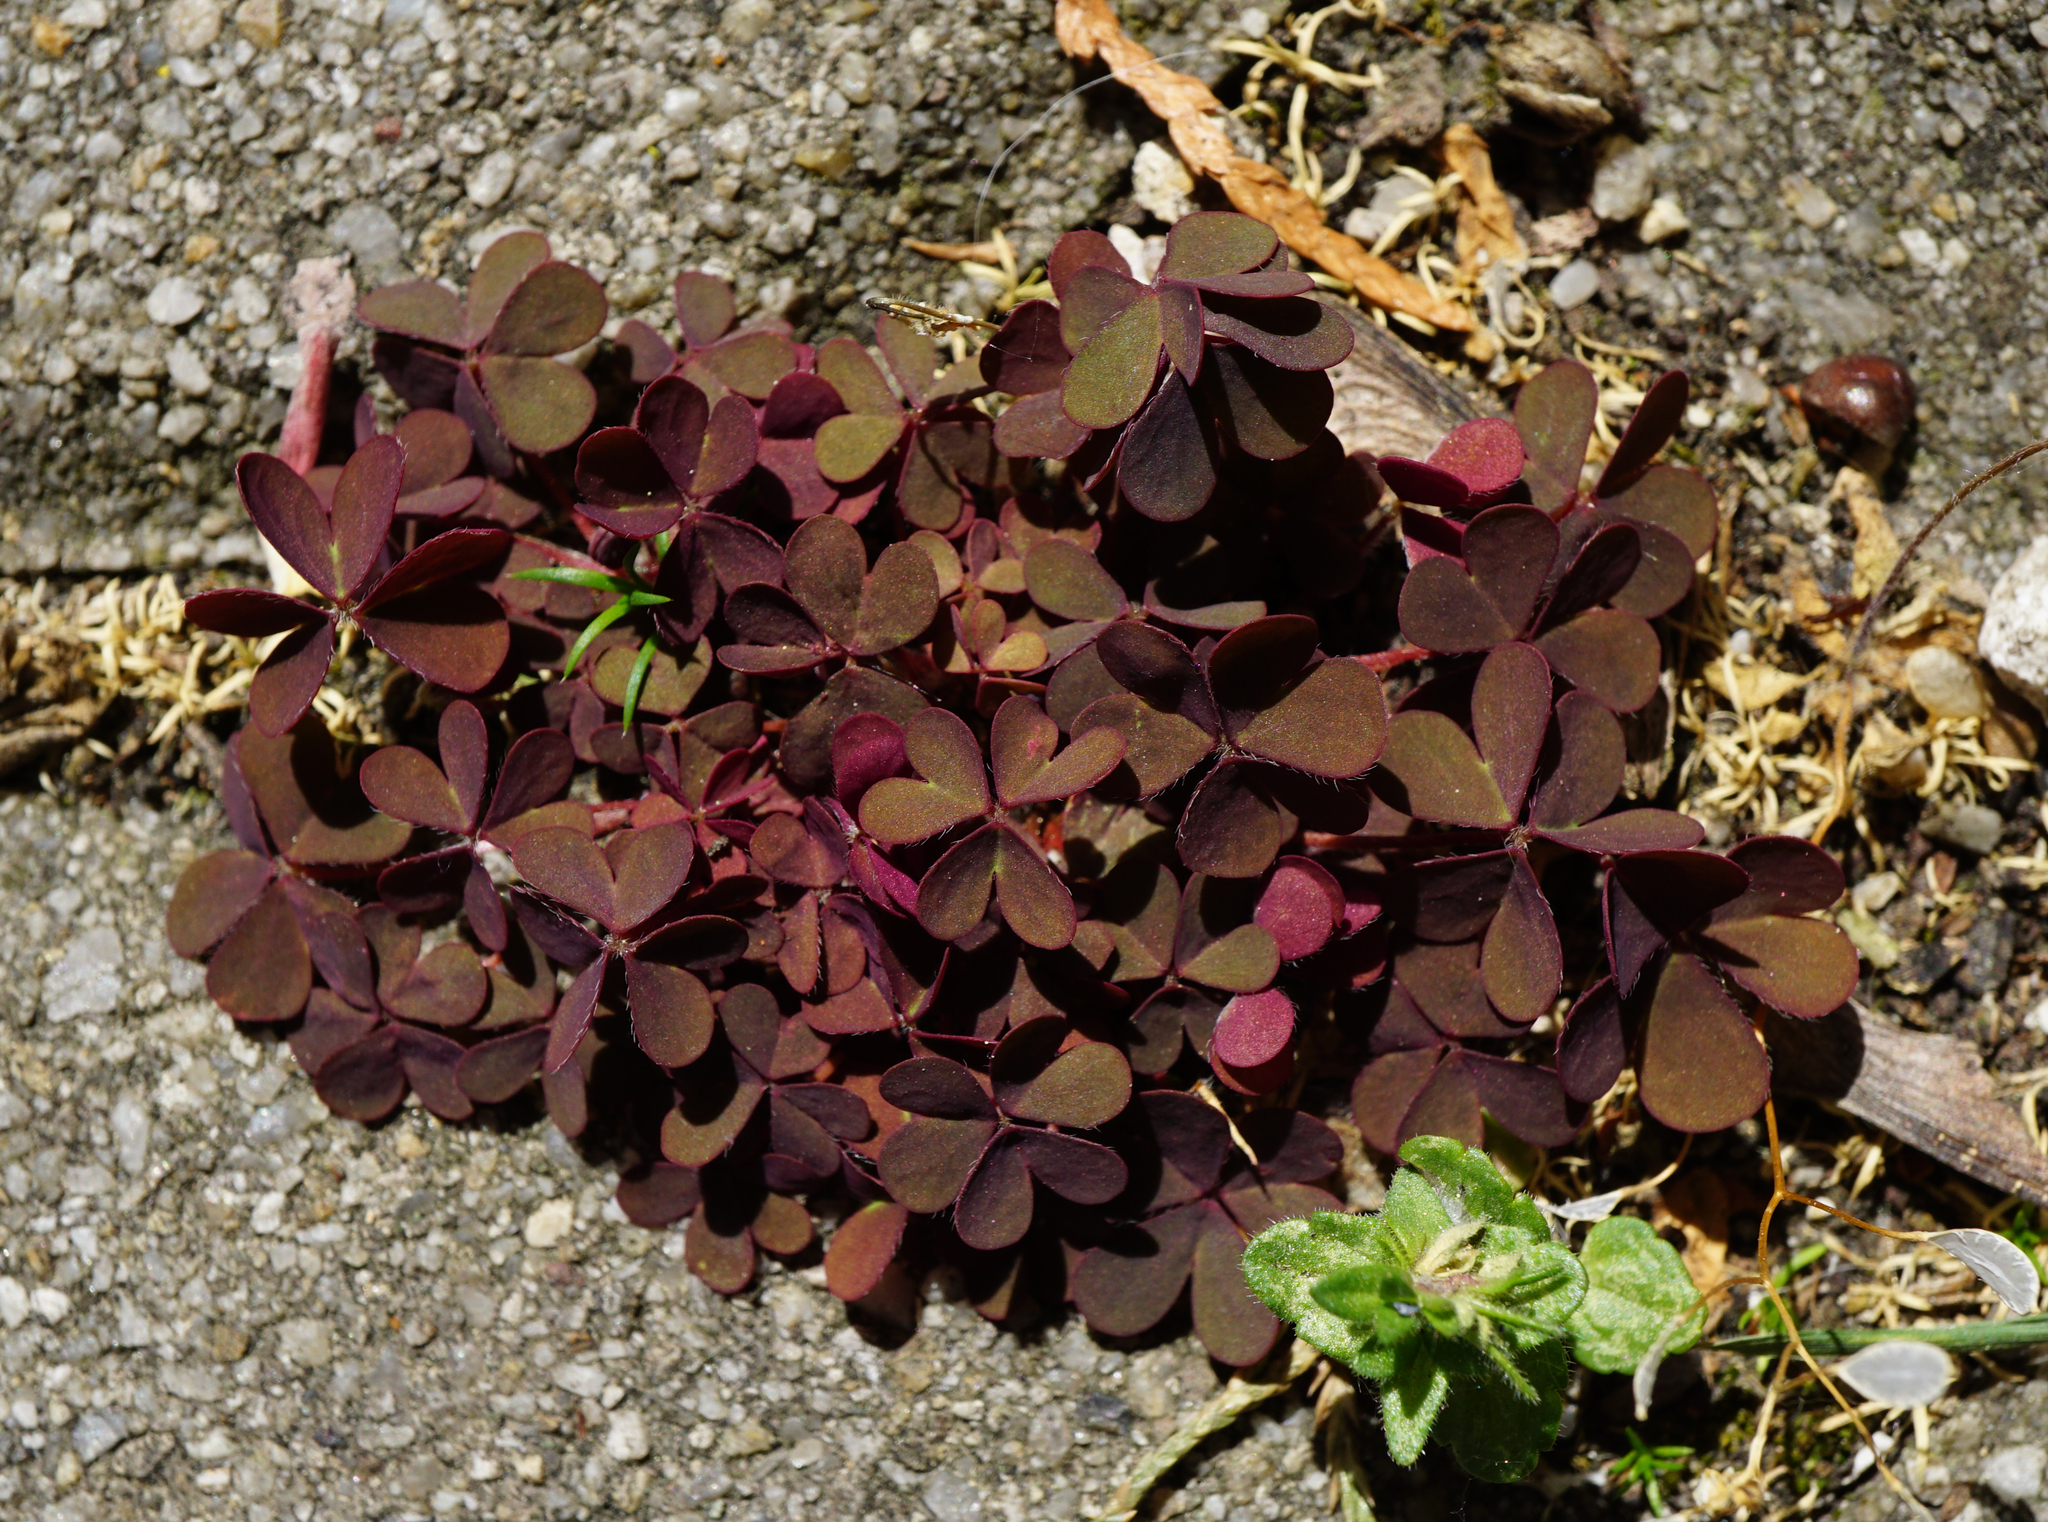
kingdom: Plantae
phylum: Tracheophyta
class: Magnoliopsida
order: Oxalidales
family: Oxalidaceae
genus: Oxalis
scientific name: Oxalis corniculata
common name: Procumbent yellow-sorrel
